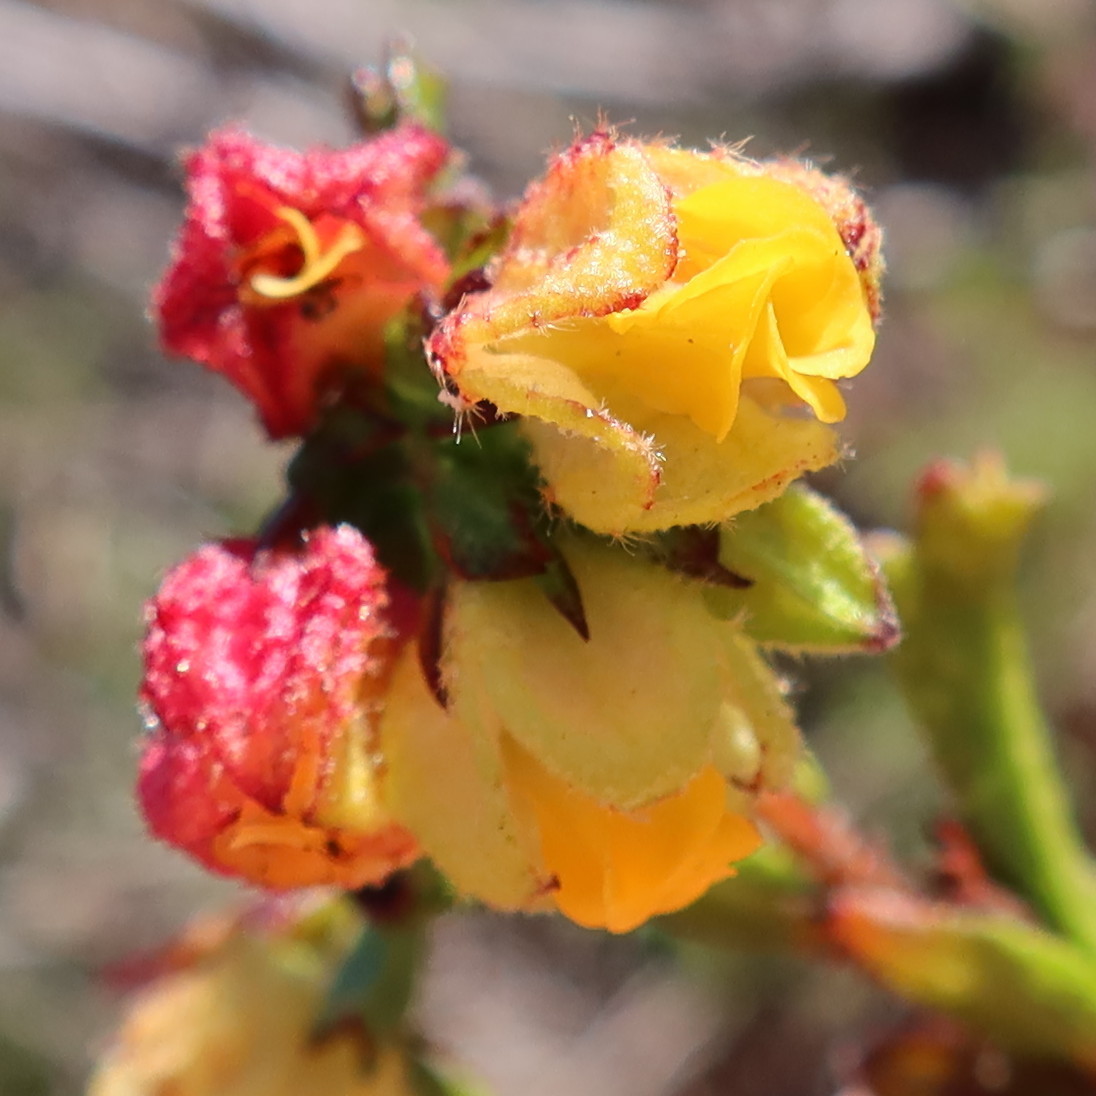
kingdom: Plantae
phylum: Tracheophyta
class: Magnoliopsida
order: Malvales
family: Malvaceae
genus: Hermannia
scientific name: Hermannia rudis
